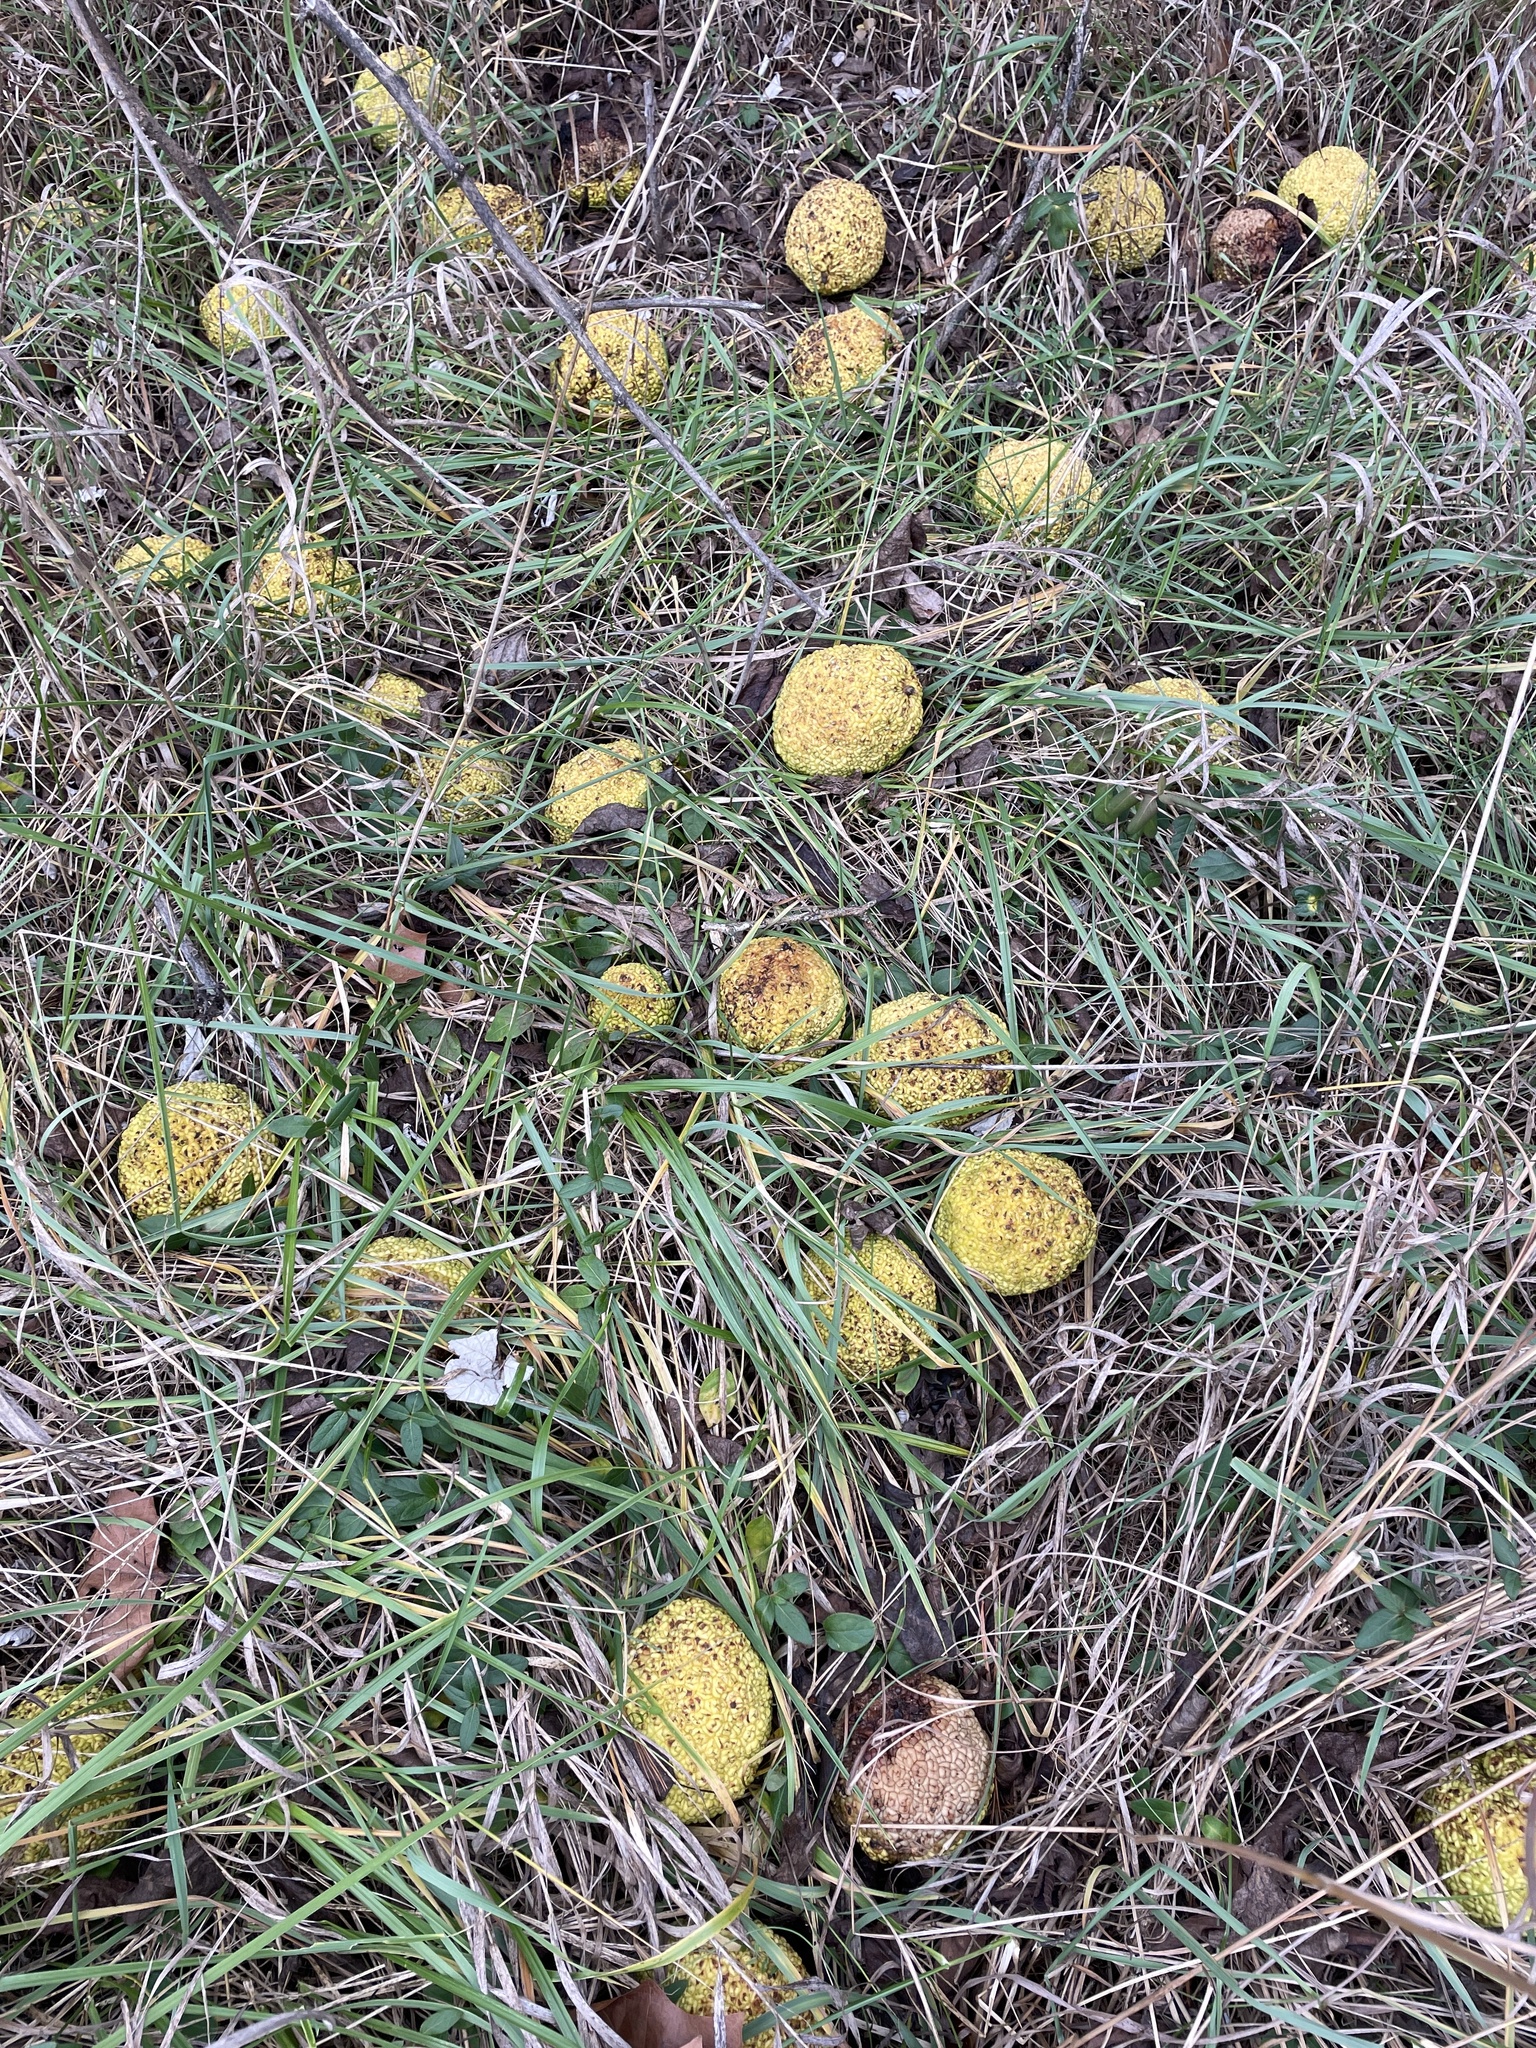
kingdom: Plantae
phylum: Tracheophyta
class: Magnoliopsida
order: Rosales
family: Moraceae
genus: Maclura
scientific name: Maclura pomifera
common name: Osage-orange
